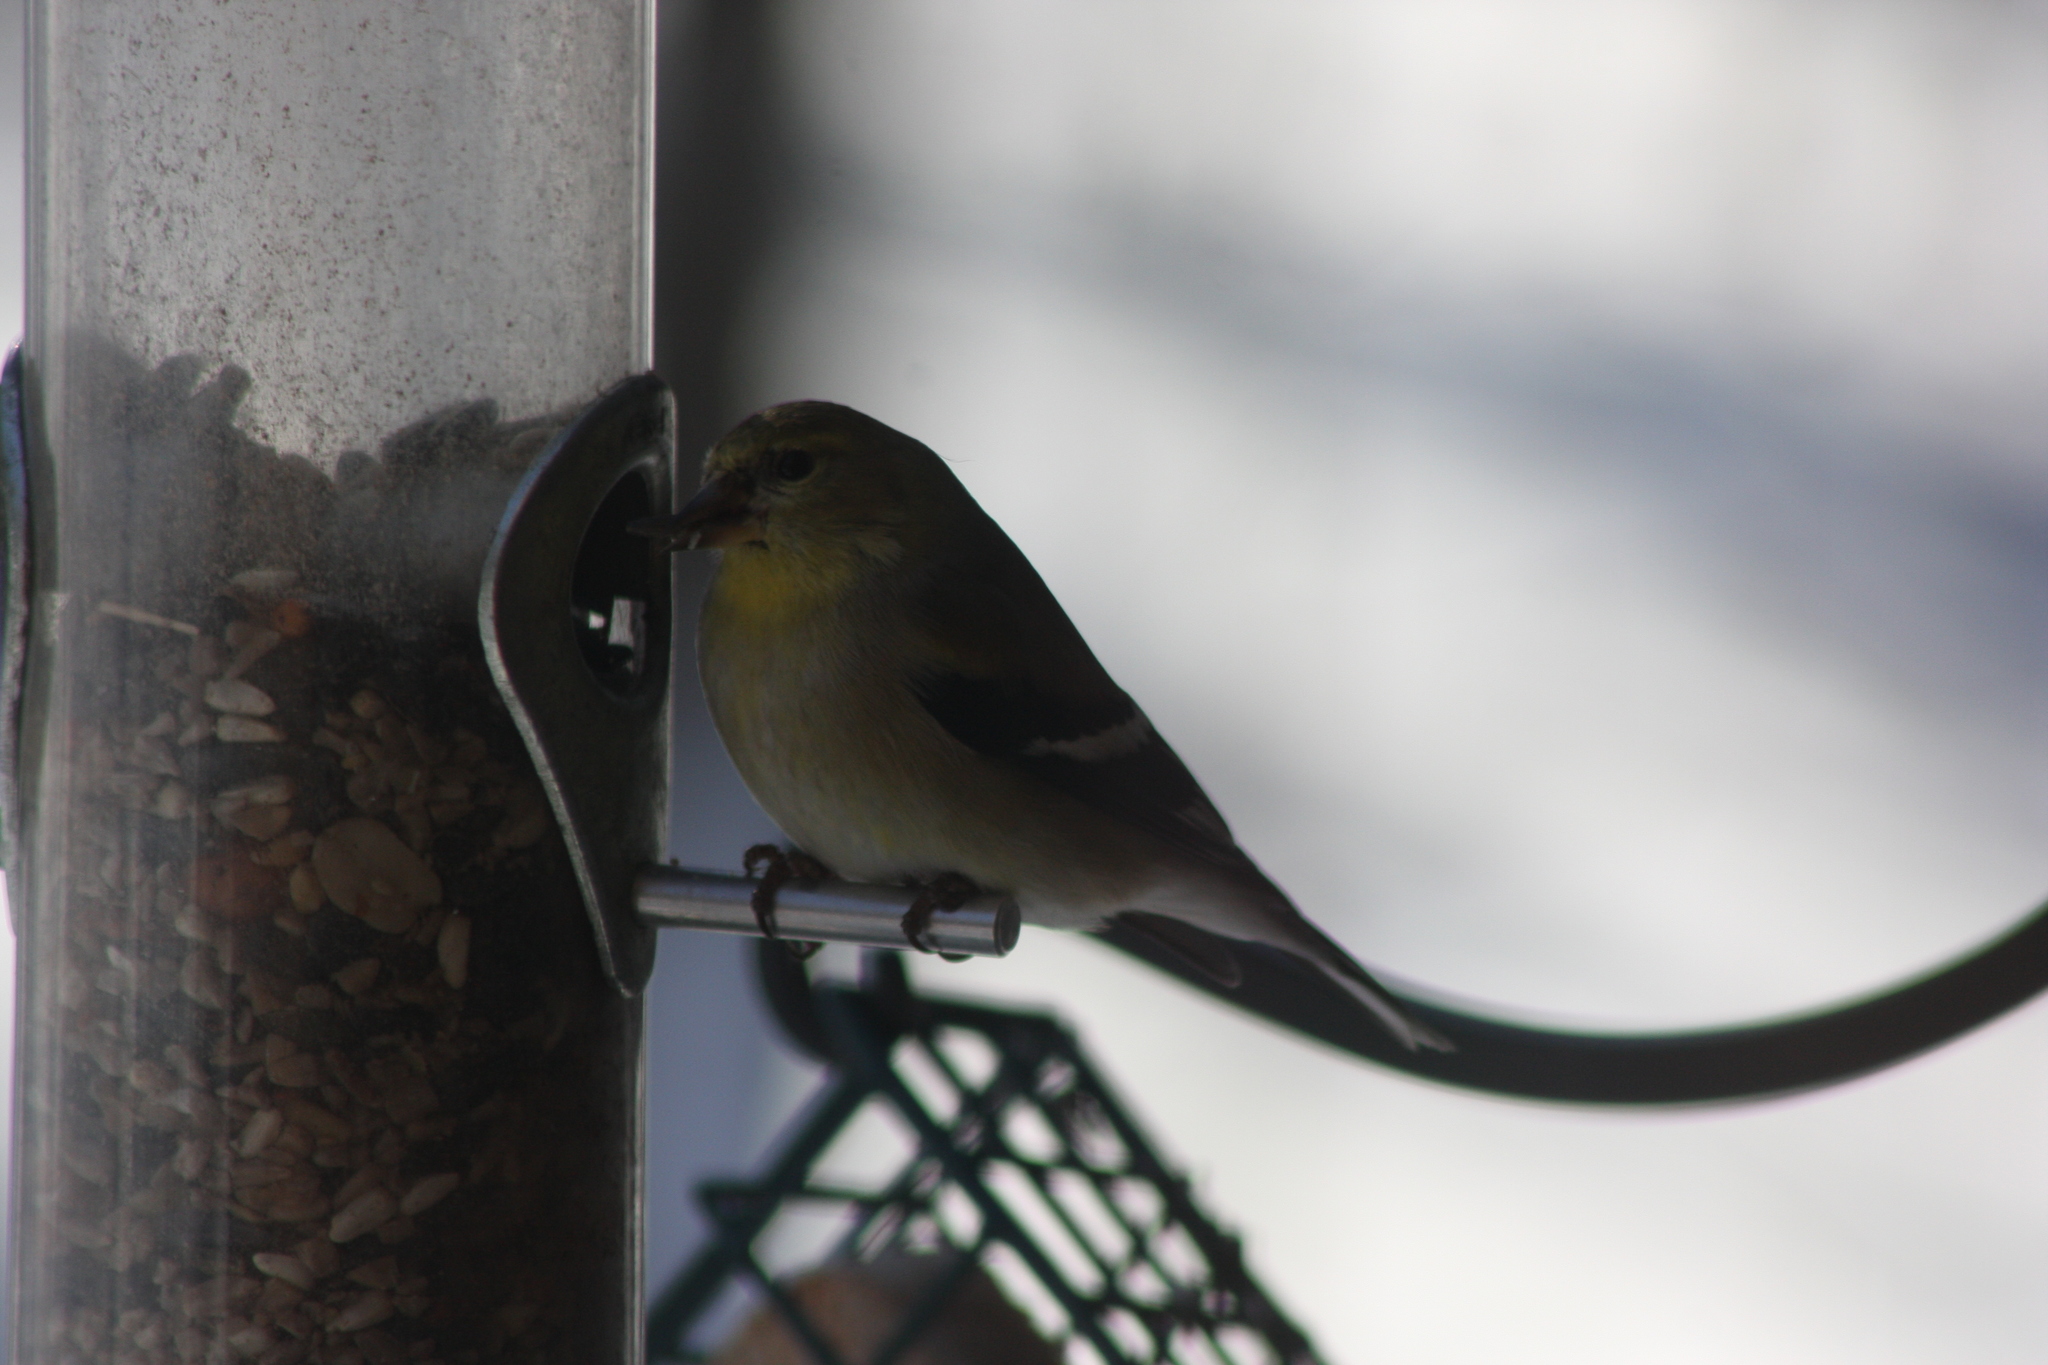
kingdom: Animalia
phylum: Chordata
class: Aves
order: Passeriformes
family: Fringillidae
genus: Spinus
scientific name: Spinus tristis
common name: American goldfinch
